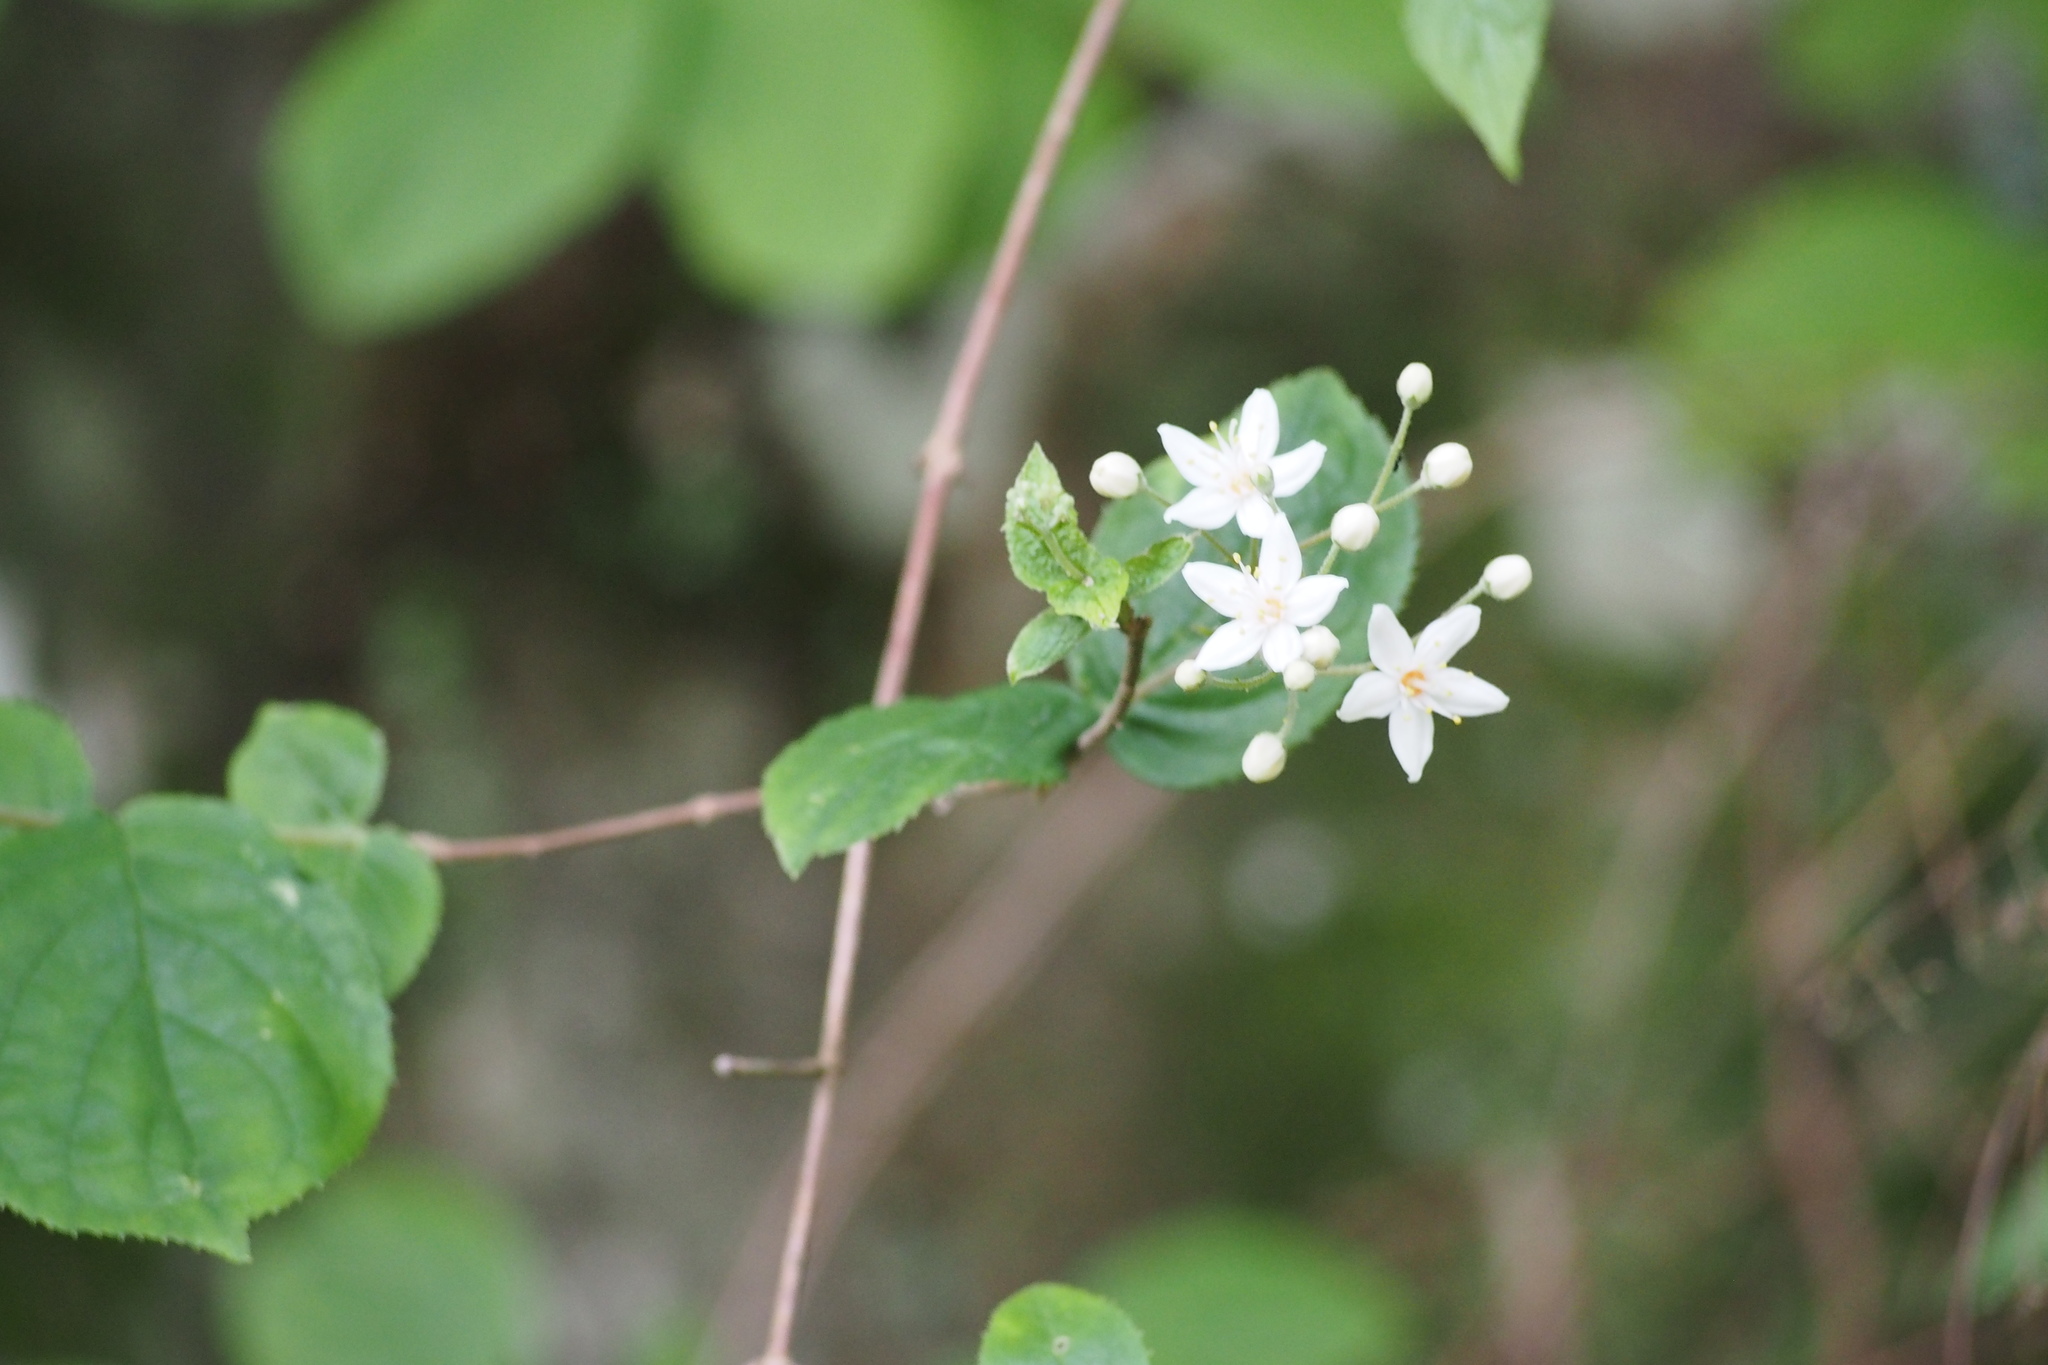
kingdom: Plantae
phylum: Tracheophyta
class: Magnoliopsida
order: Cornales
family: Hydrangeaceae
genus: Deutzia
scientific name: Deutzia scabra
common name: Deutzia
